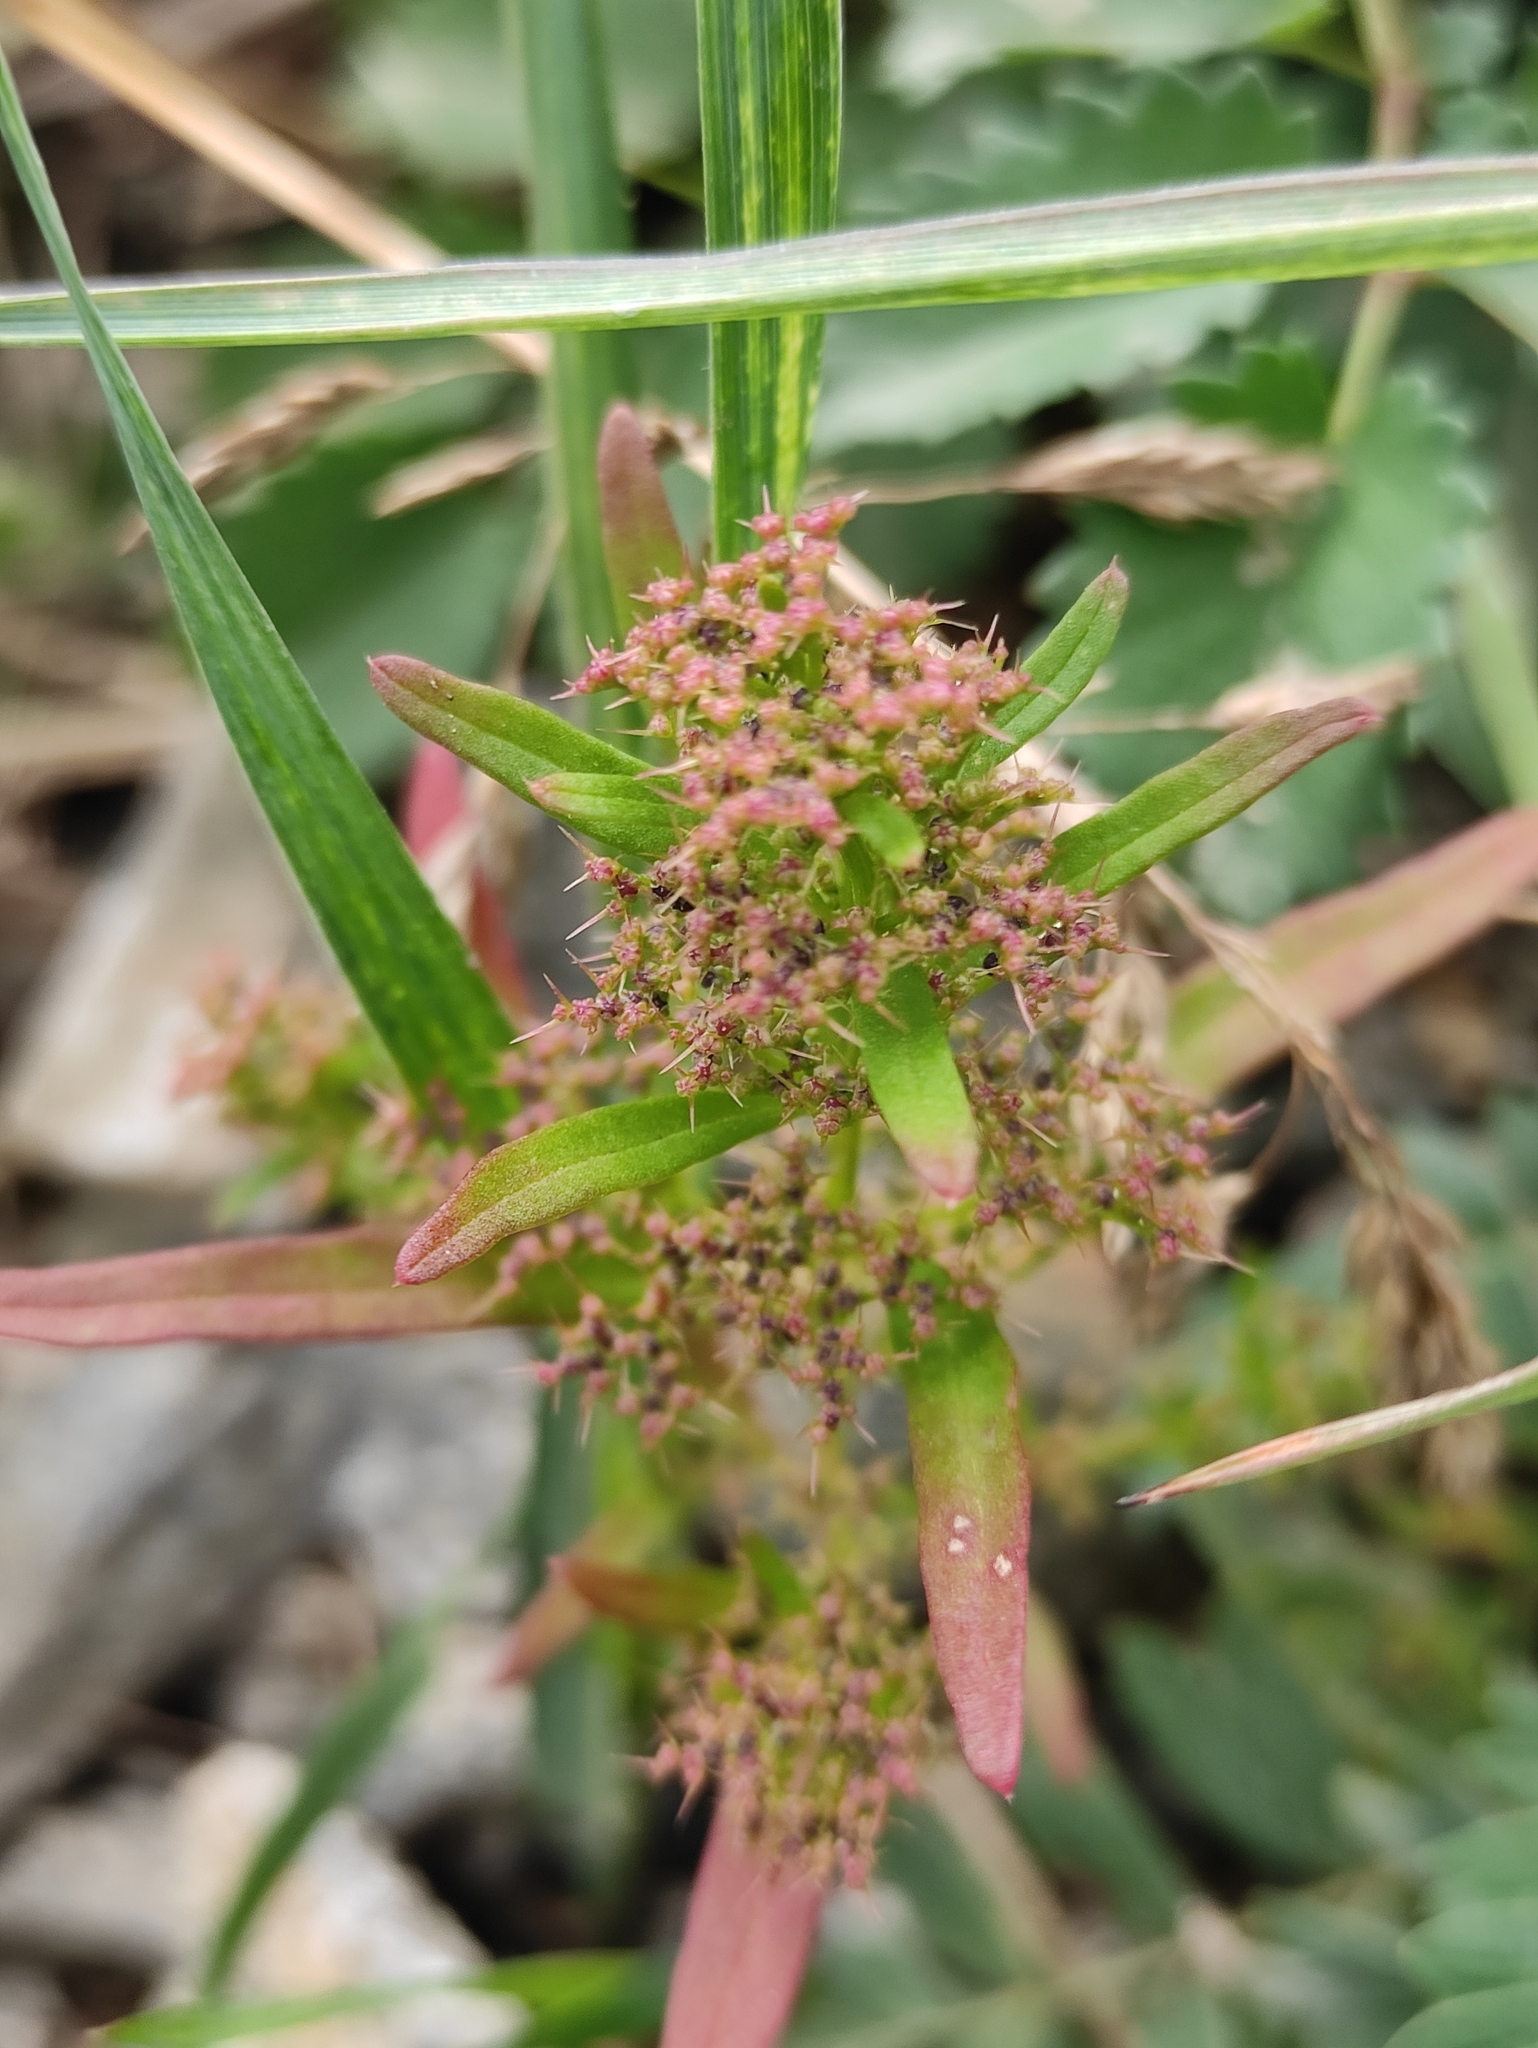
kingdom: Plantae
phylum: Tracheophyta
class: Magnoliopsida
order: Caryophyllales
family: Amaranthaceae
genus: Teloxys
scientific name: Teloxys aristata
